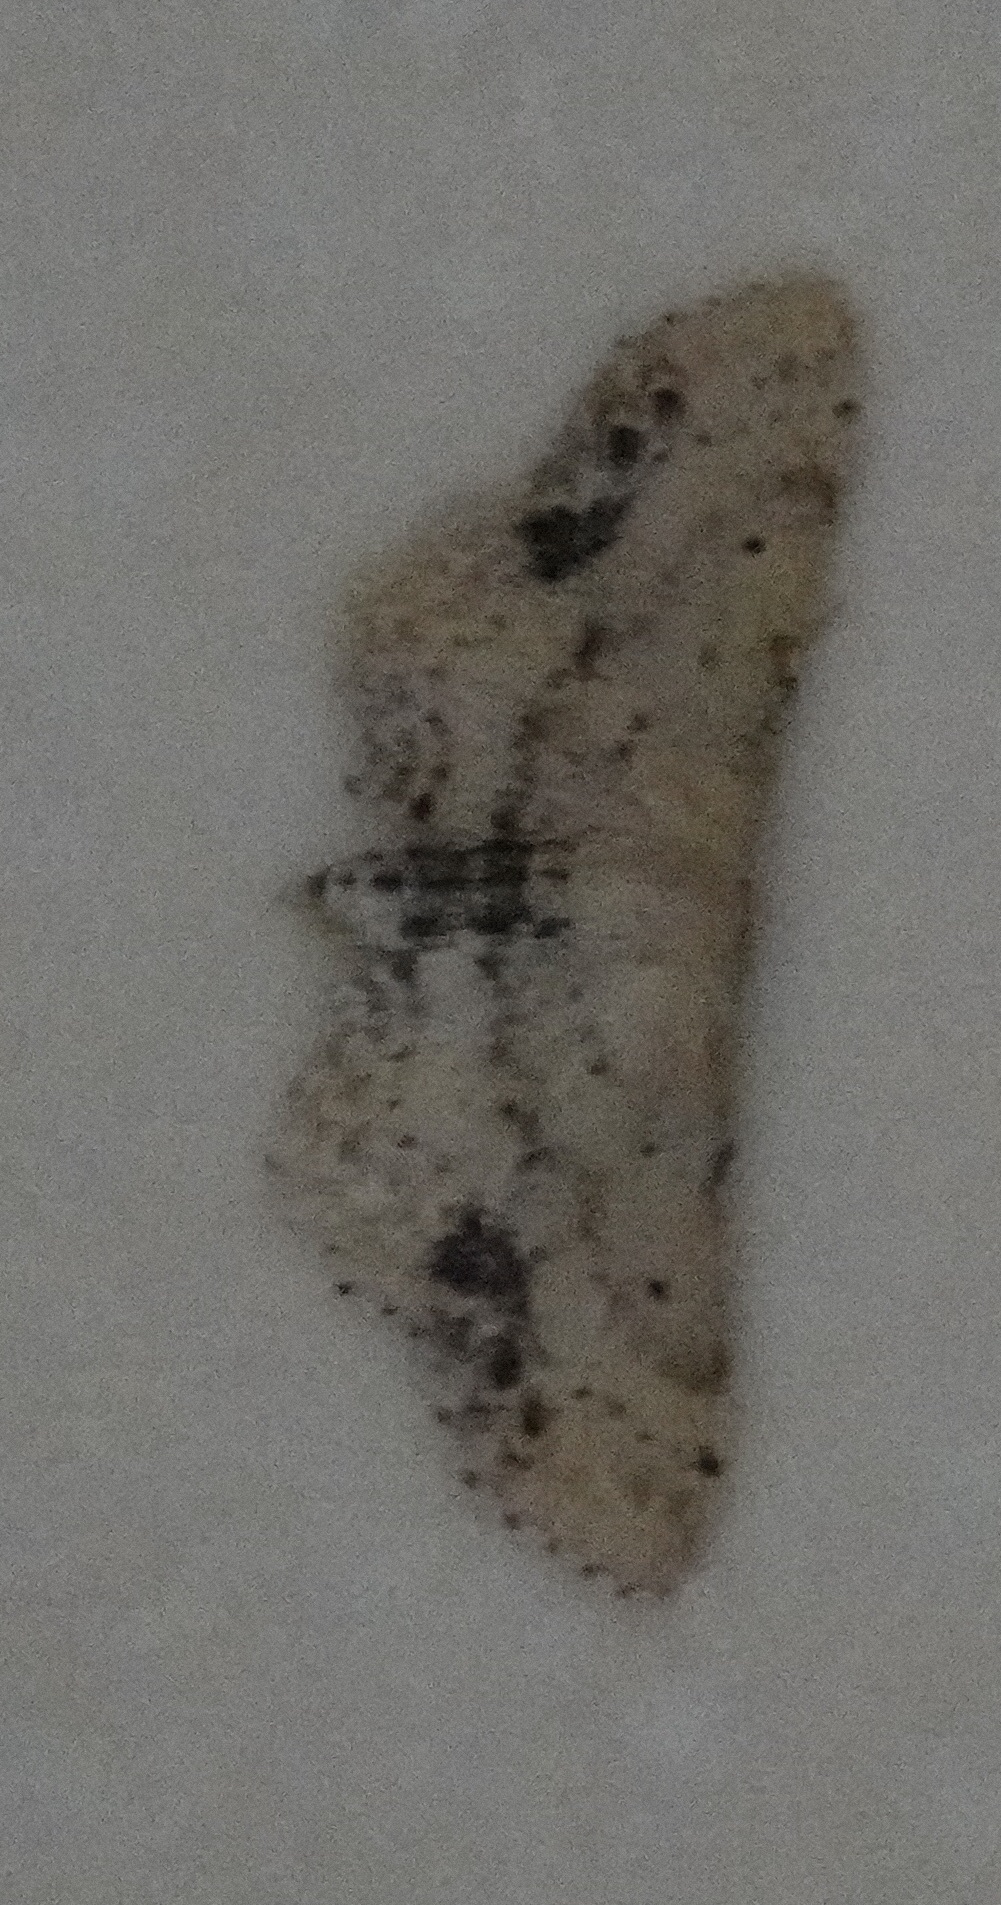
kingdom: Animalia
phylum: Arthropoda
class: Insecta
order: Lepidoptera
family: Geometridae
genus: Idaea
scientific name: Idaea dimidiata
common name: Single-dotted wave
